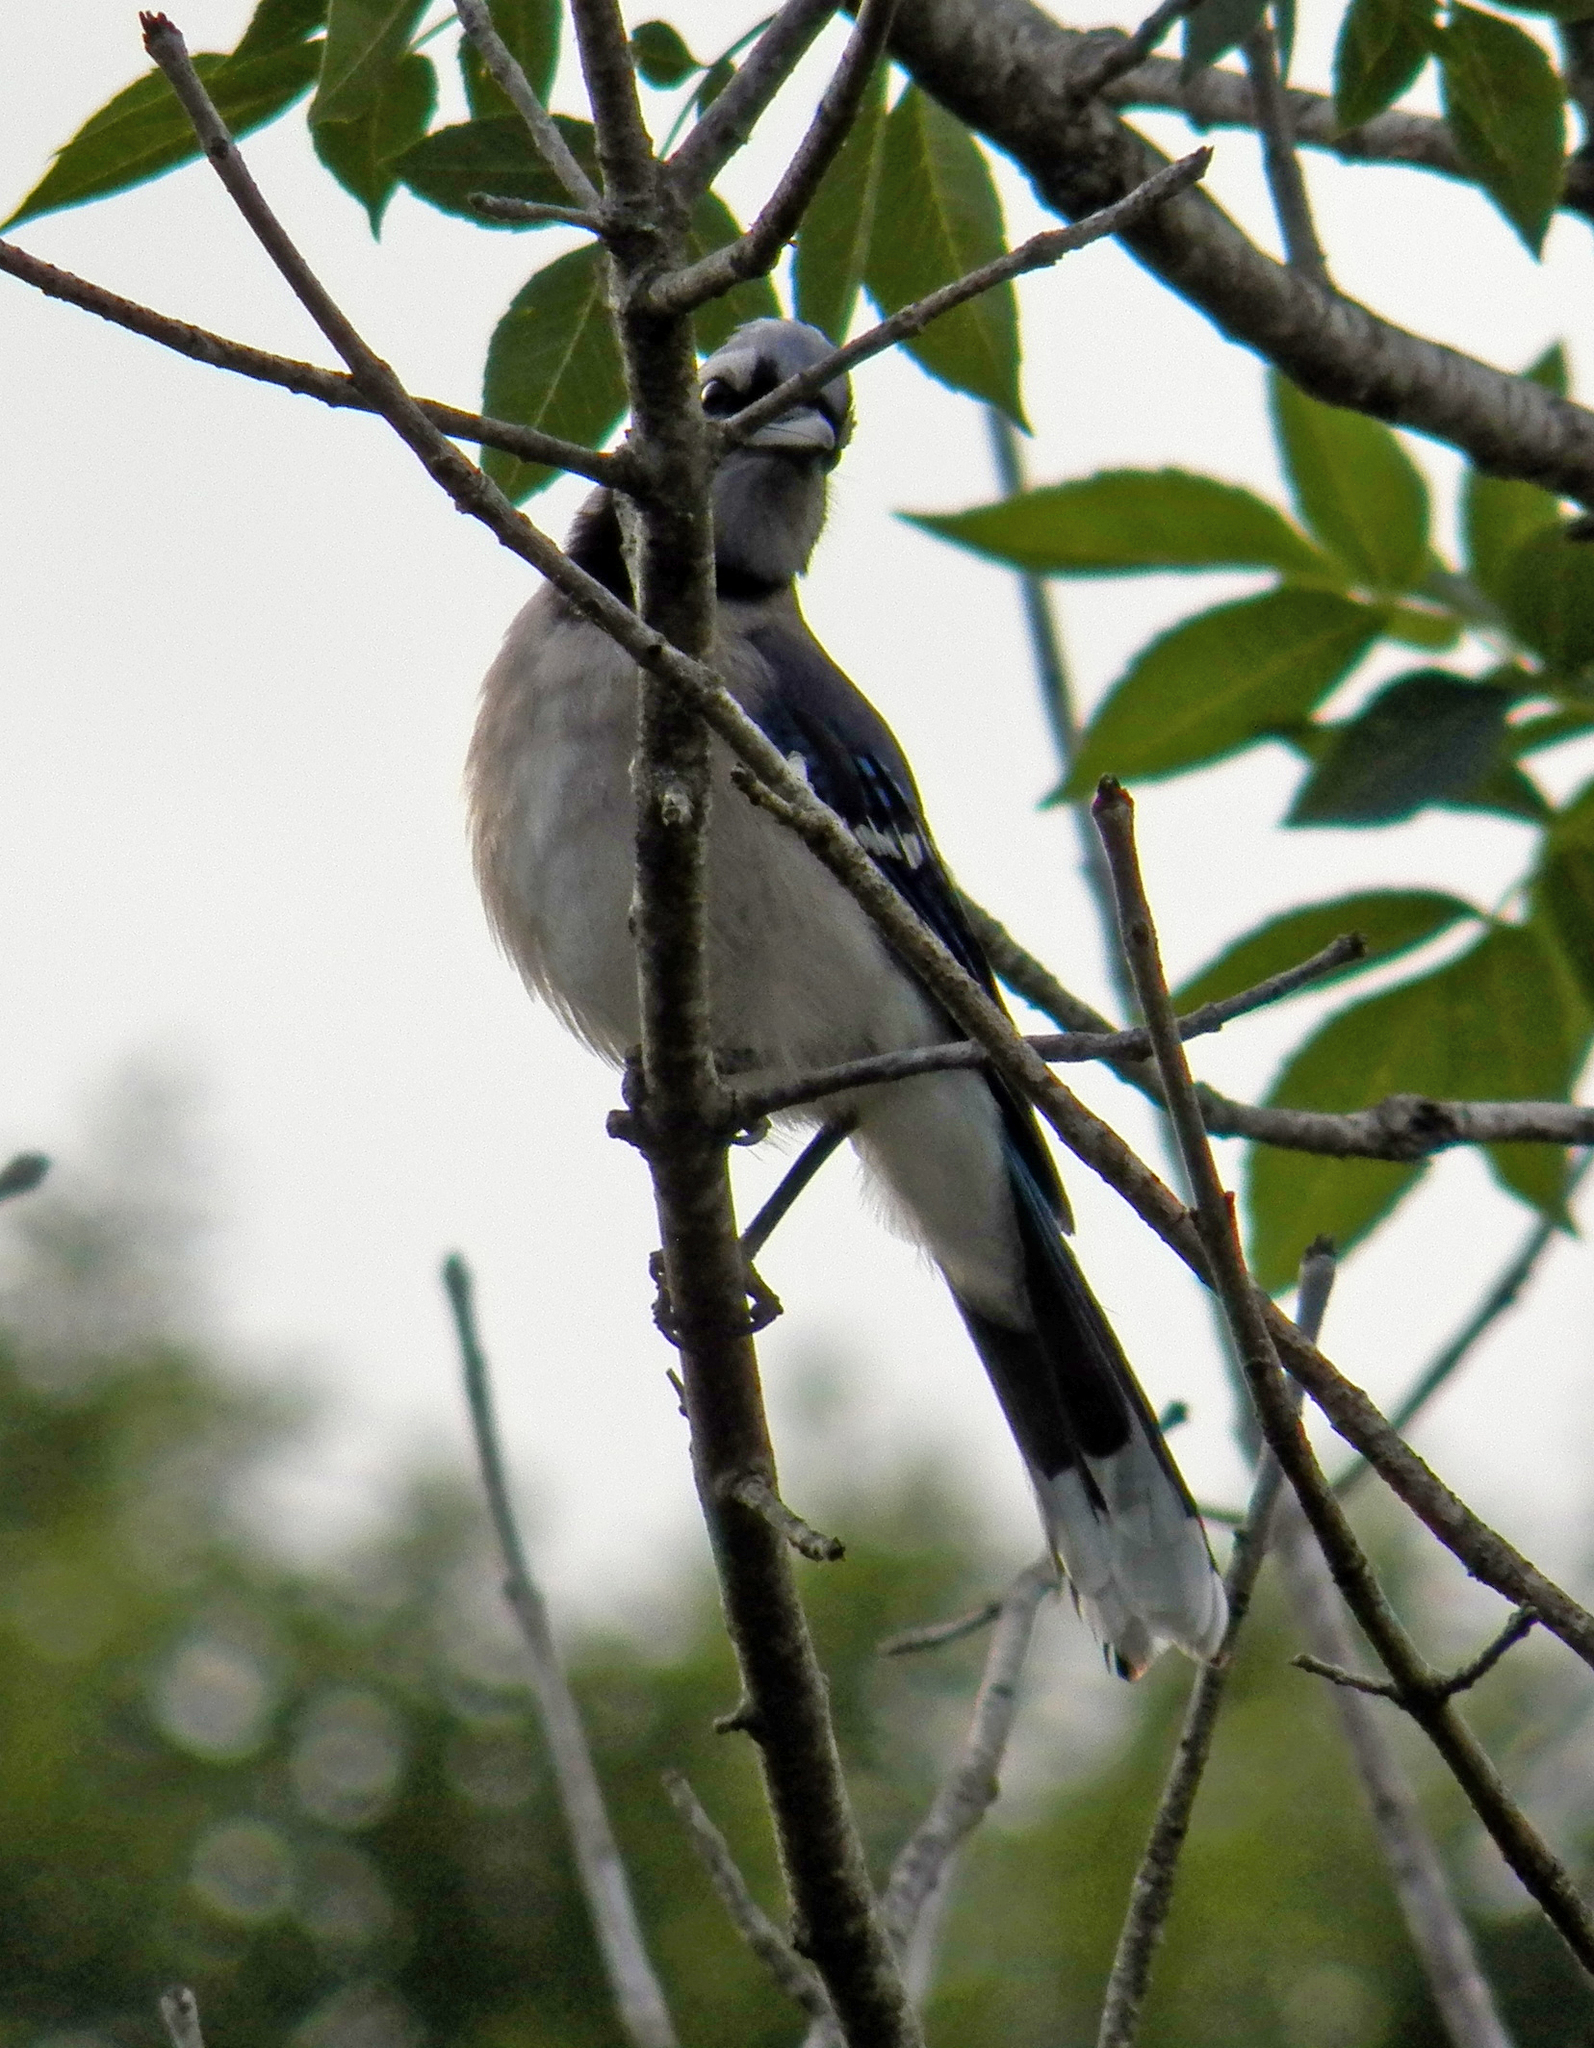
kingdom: Animalia
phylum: Chordata
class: Aves
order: Passeriformes
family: Corvidae
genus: Cyanocitta
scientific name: Cyanocitta cristata
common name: Blue jay
